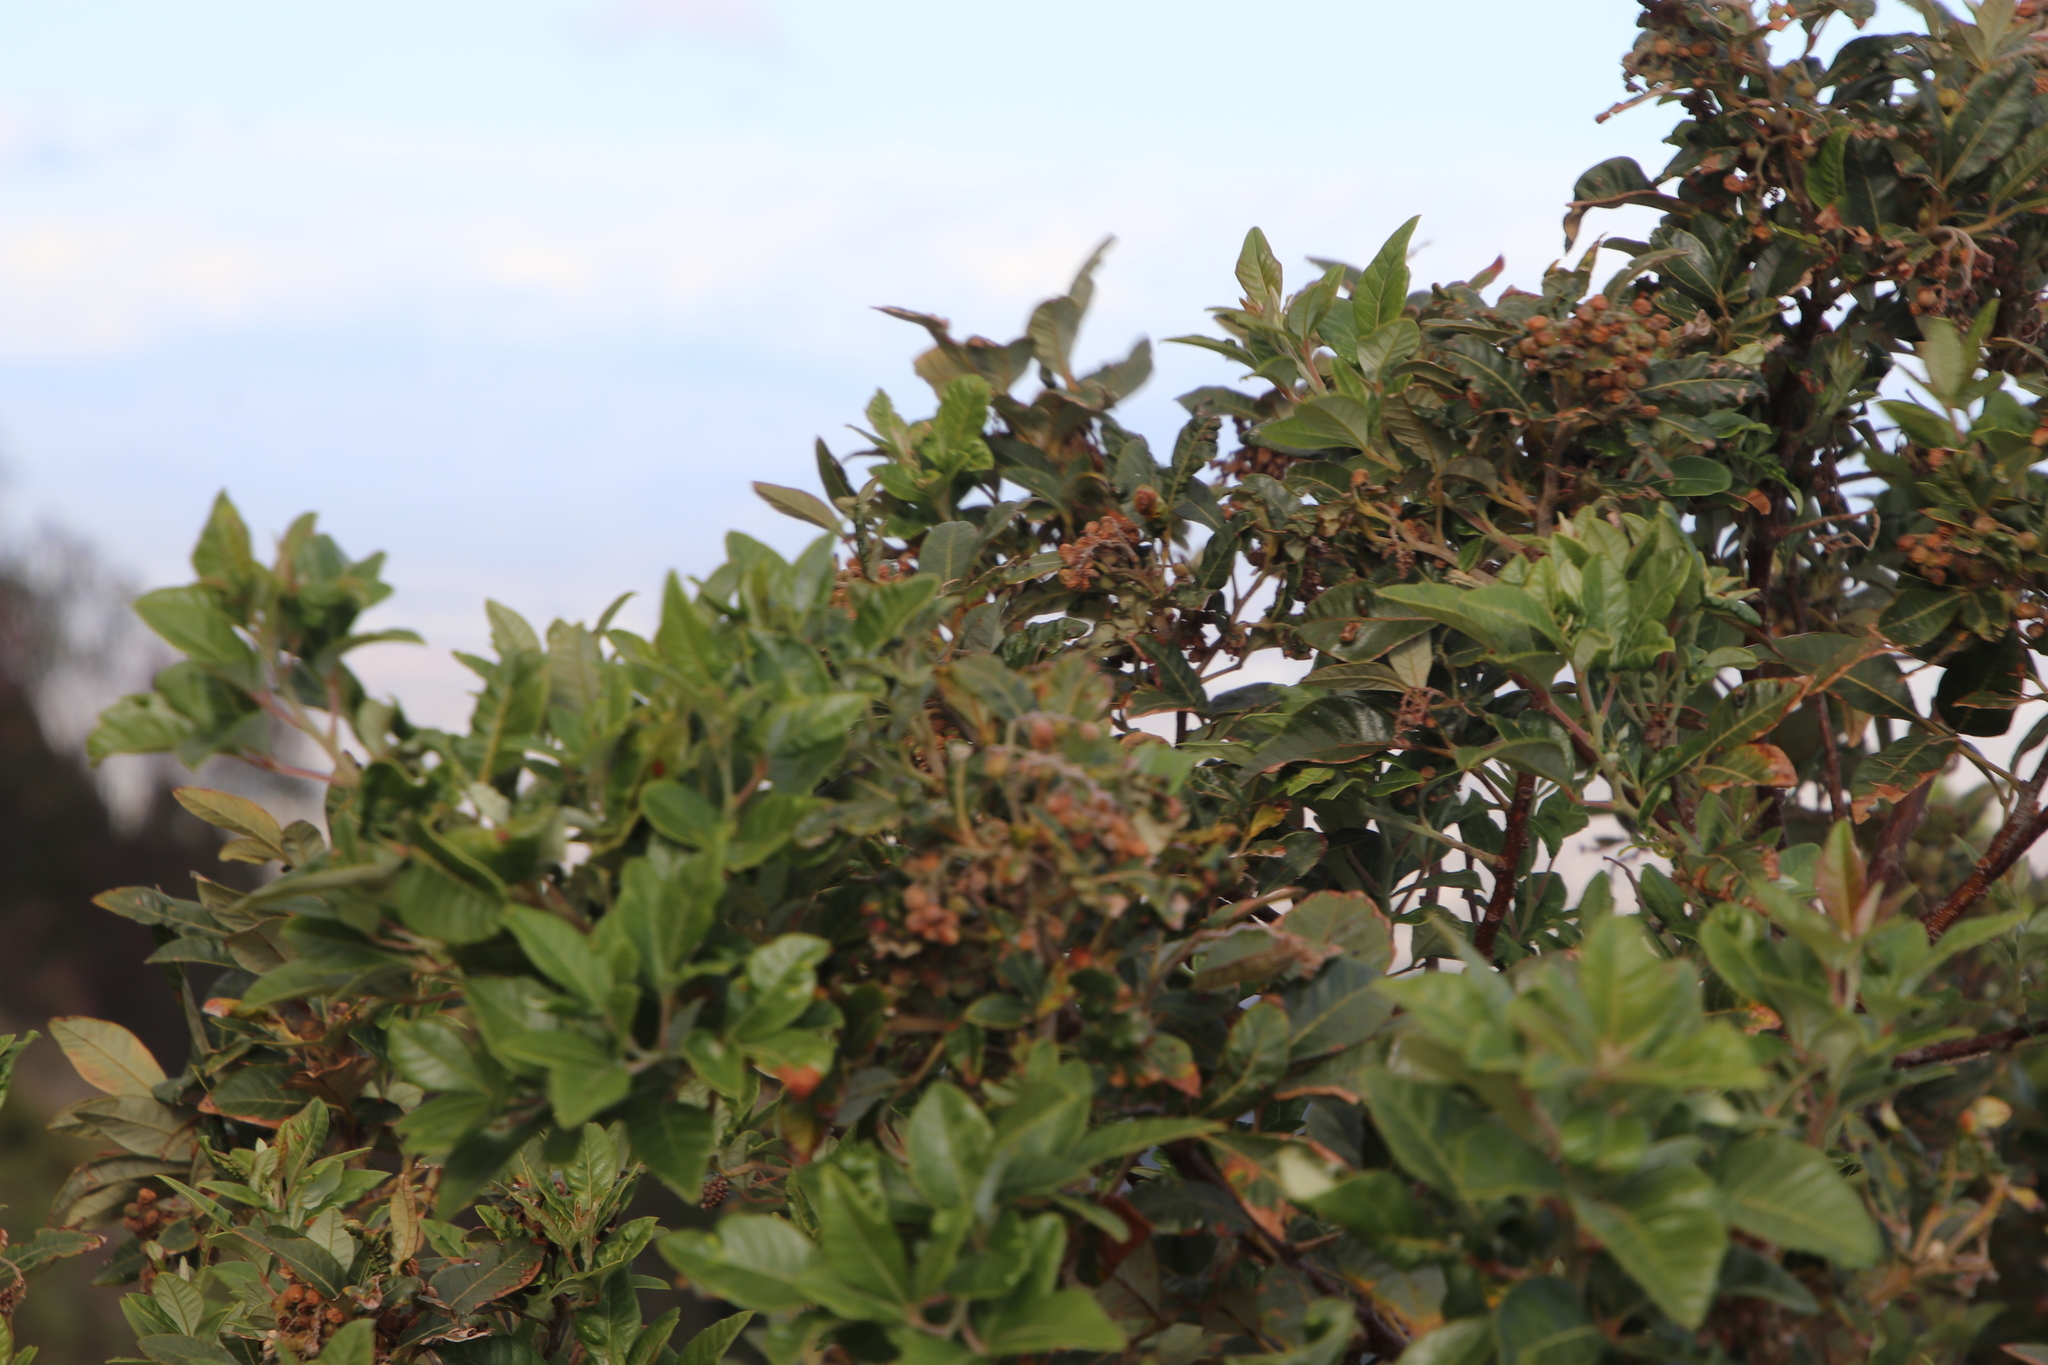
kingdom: Plantae
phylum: Tracheophyta
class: Magnoliopsida
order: Sapindales
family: Anacardiaceae
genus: Searsia
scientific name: Searsia tomentosa
